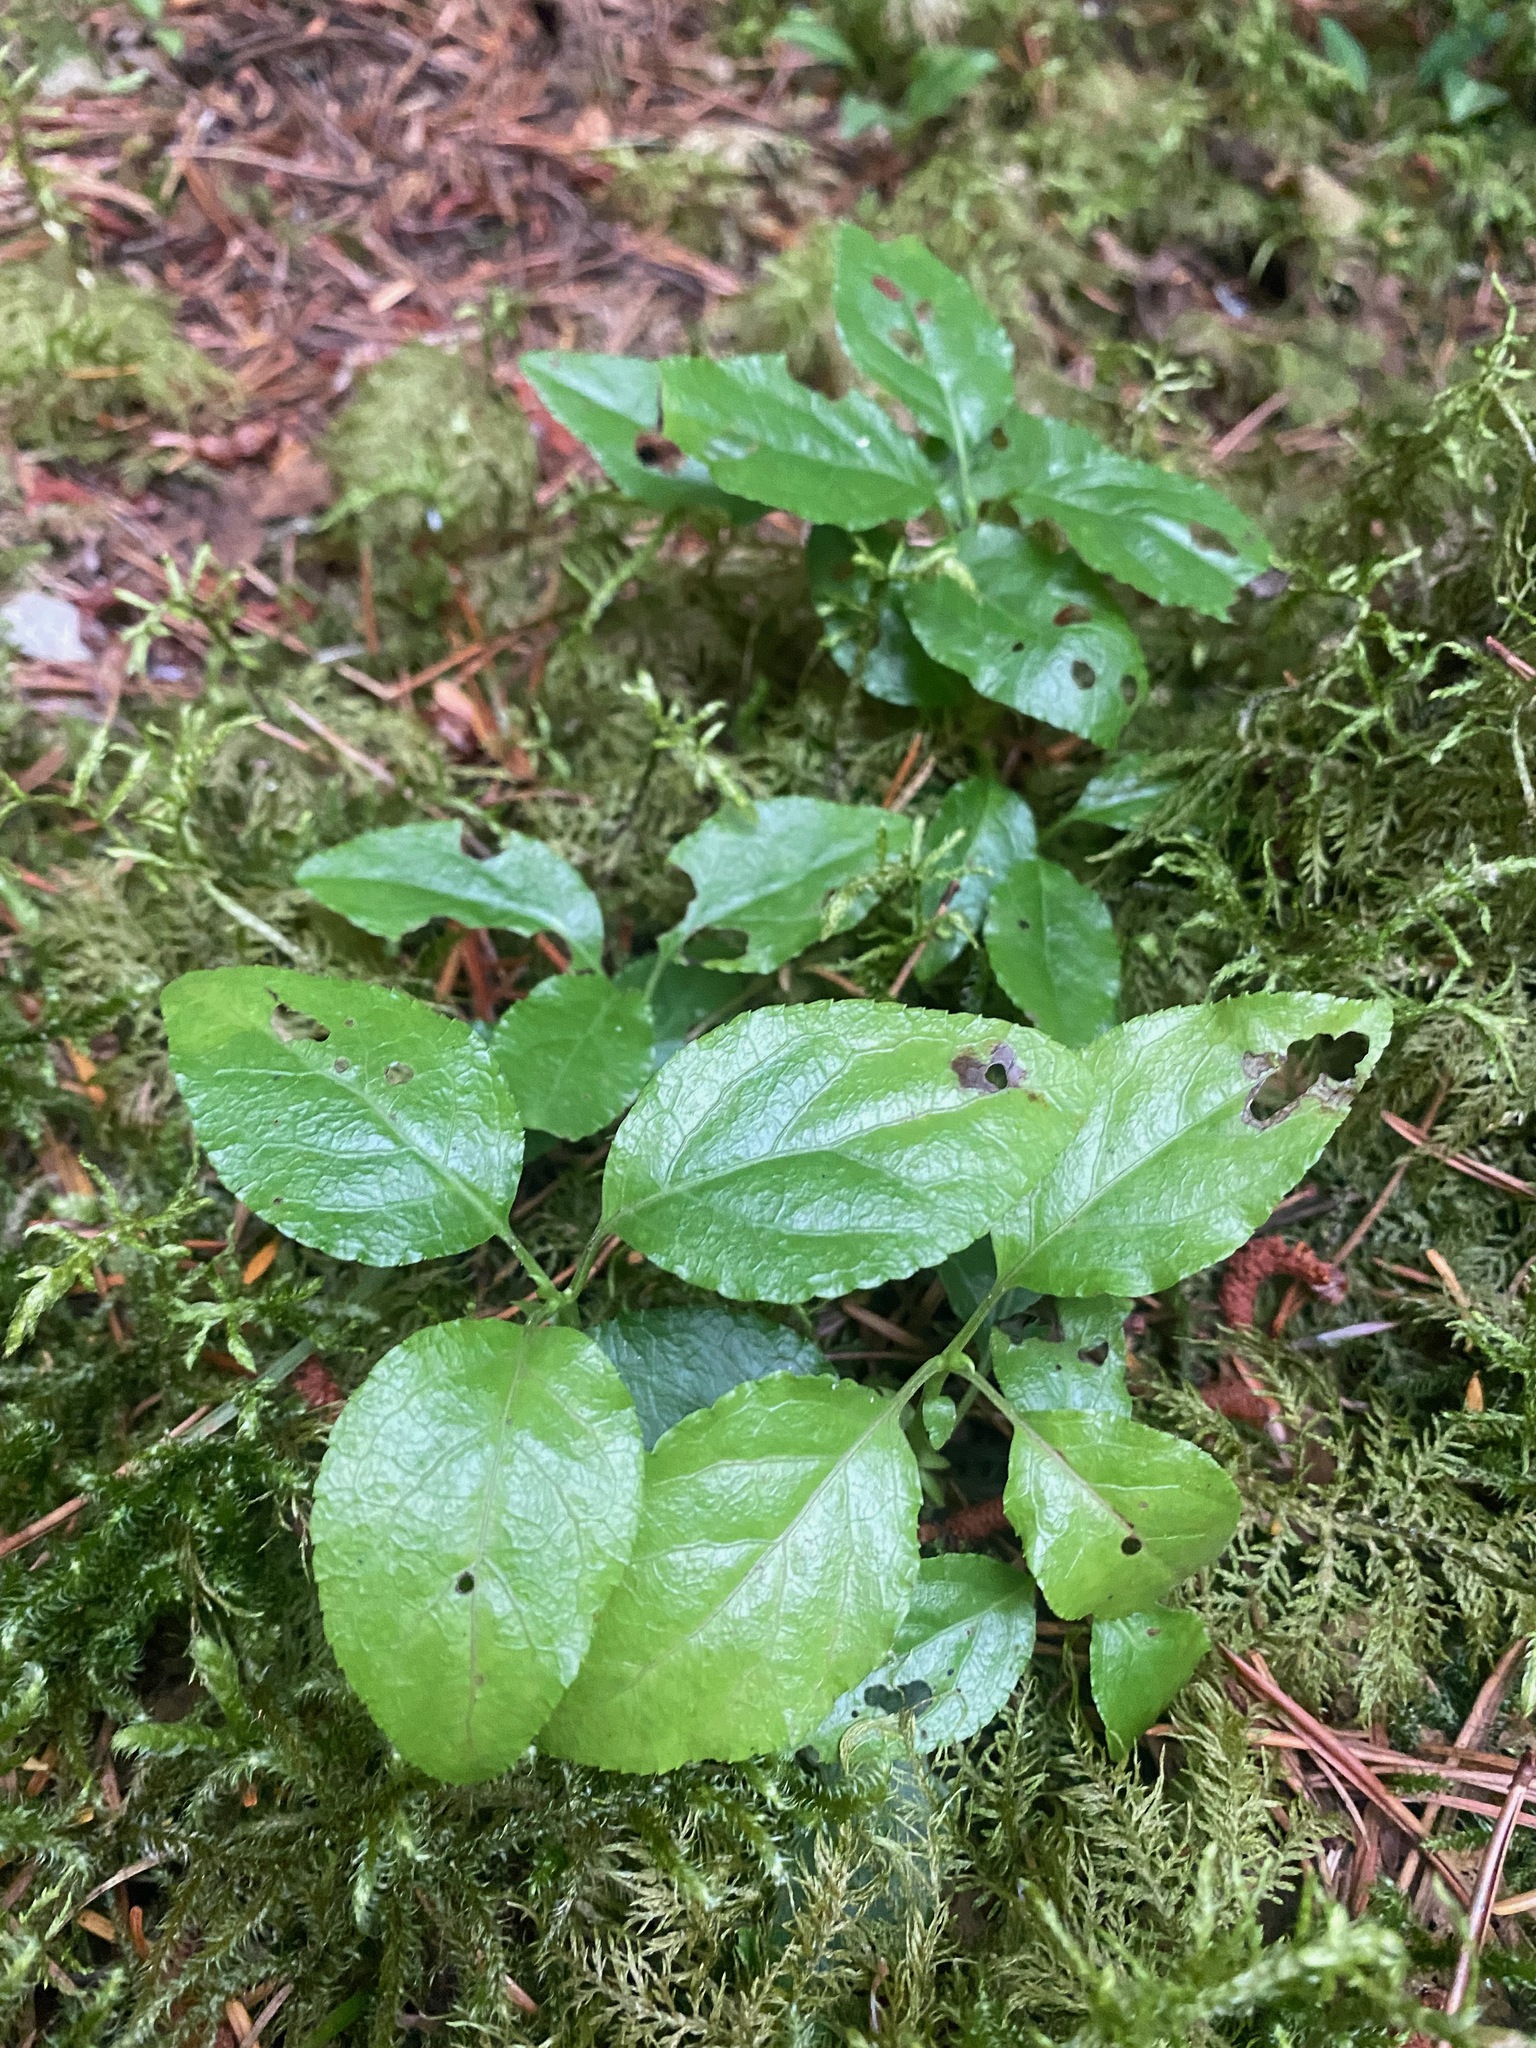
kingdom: Plantae
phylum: Tracheophyta
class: Magnoliopsida
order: Ericales
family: Ericaceae
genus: Orthilia
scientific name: Orthilia secunda
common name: One-sided orthilia
